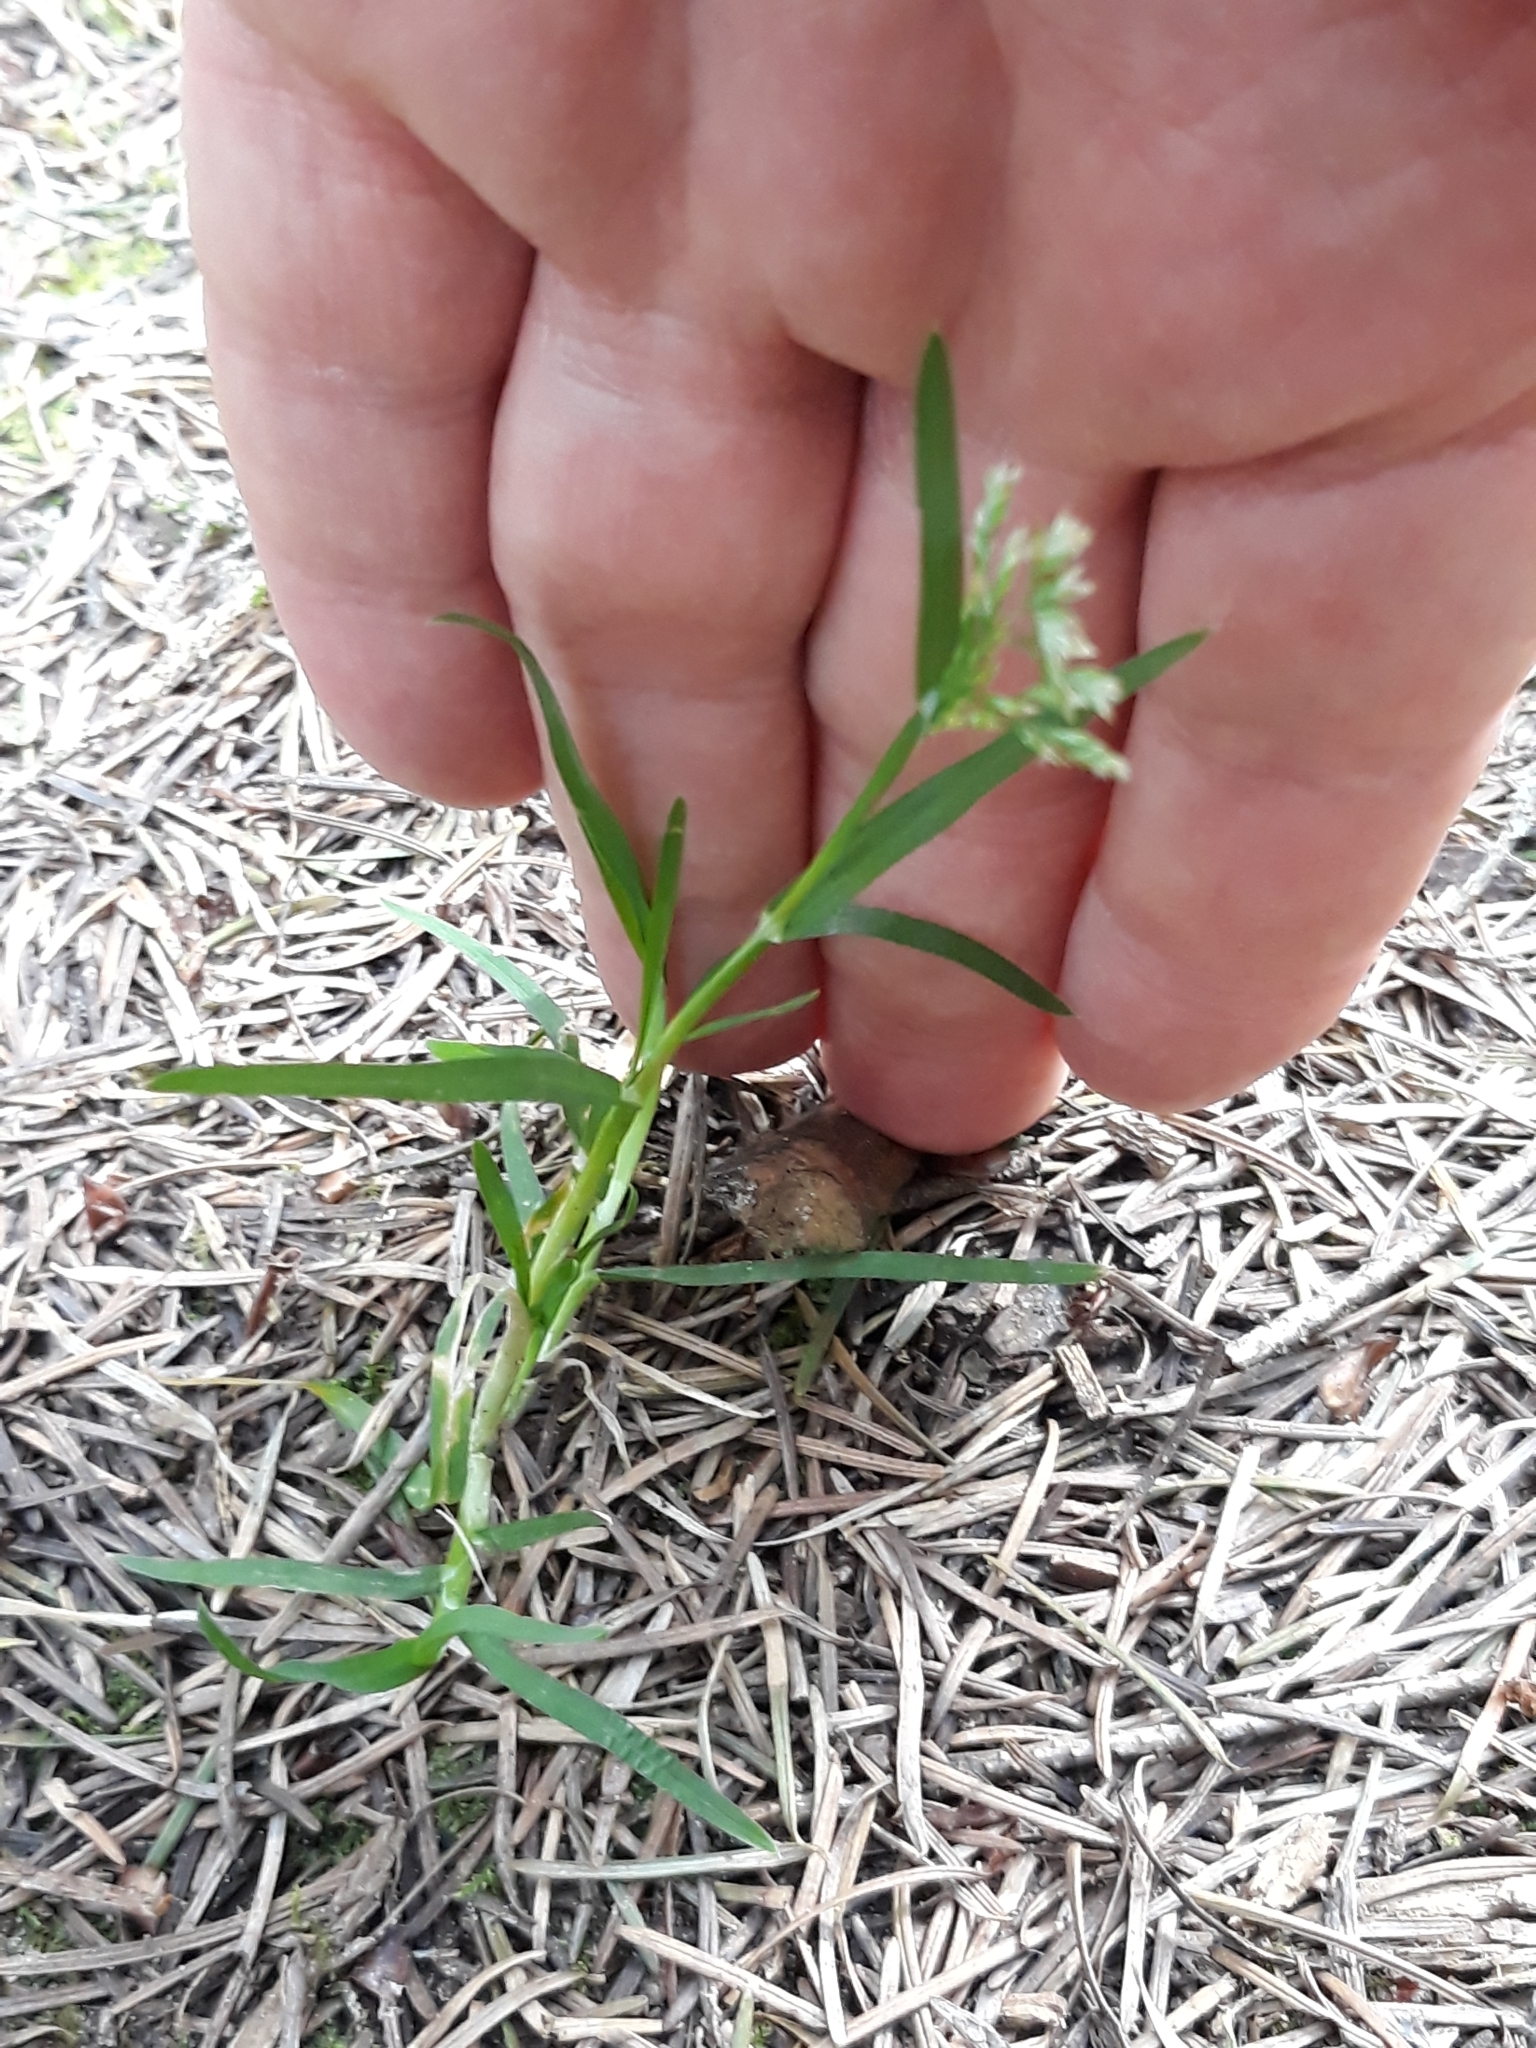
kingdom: Plantae
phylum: Tracheophyta
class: Liliopsida
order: Poales
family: Poaceae
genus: Poa
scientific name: Poa annua
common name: Annual bluegrass
